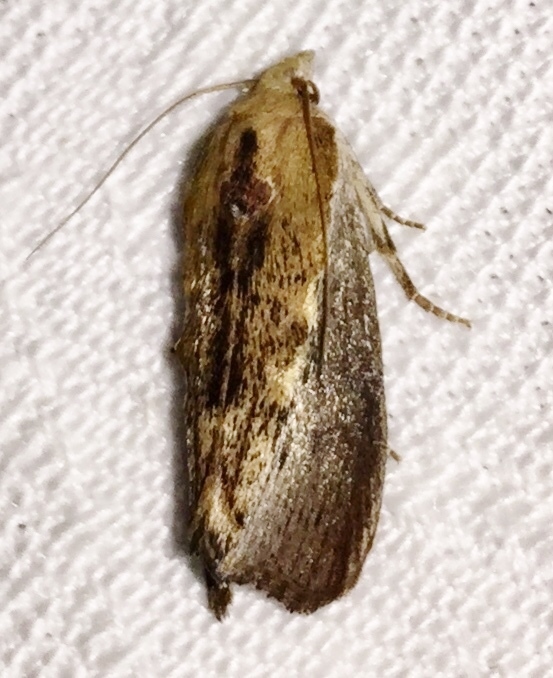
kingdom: Animalia
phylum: Arthropoda
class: Insecta
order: Lepidoptera
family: Pyralidae
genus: Galleria
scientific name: Galleria mellonella
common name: Greater wax moth
